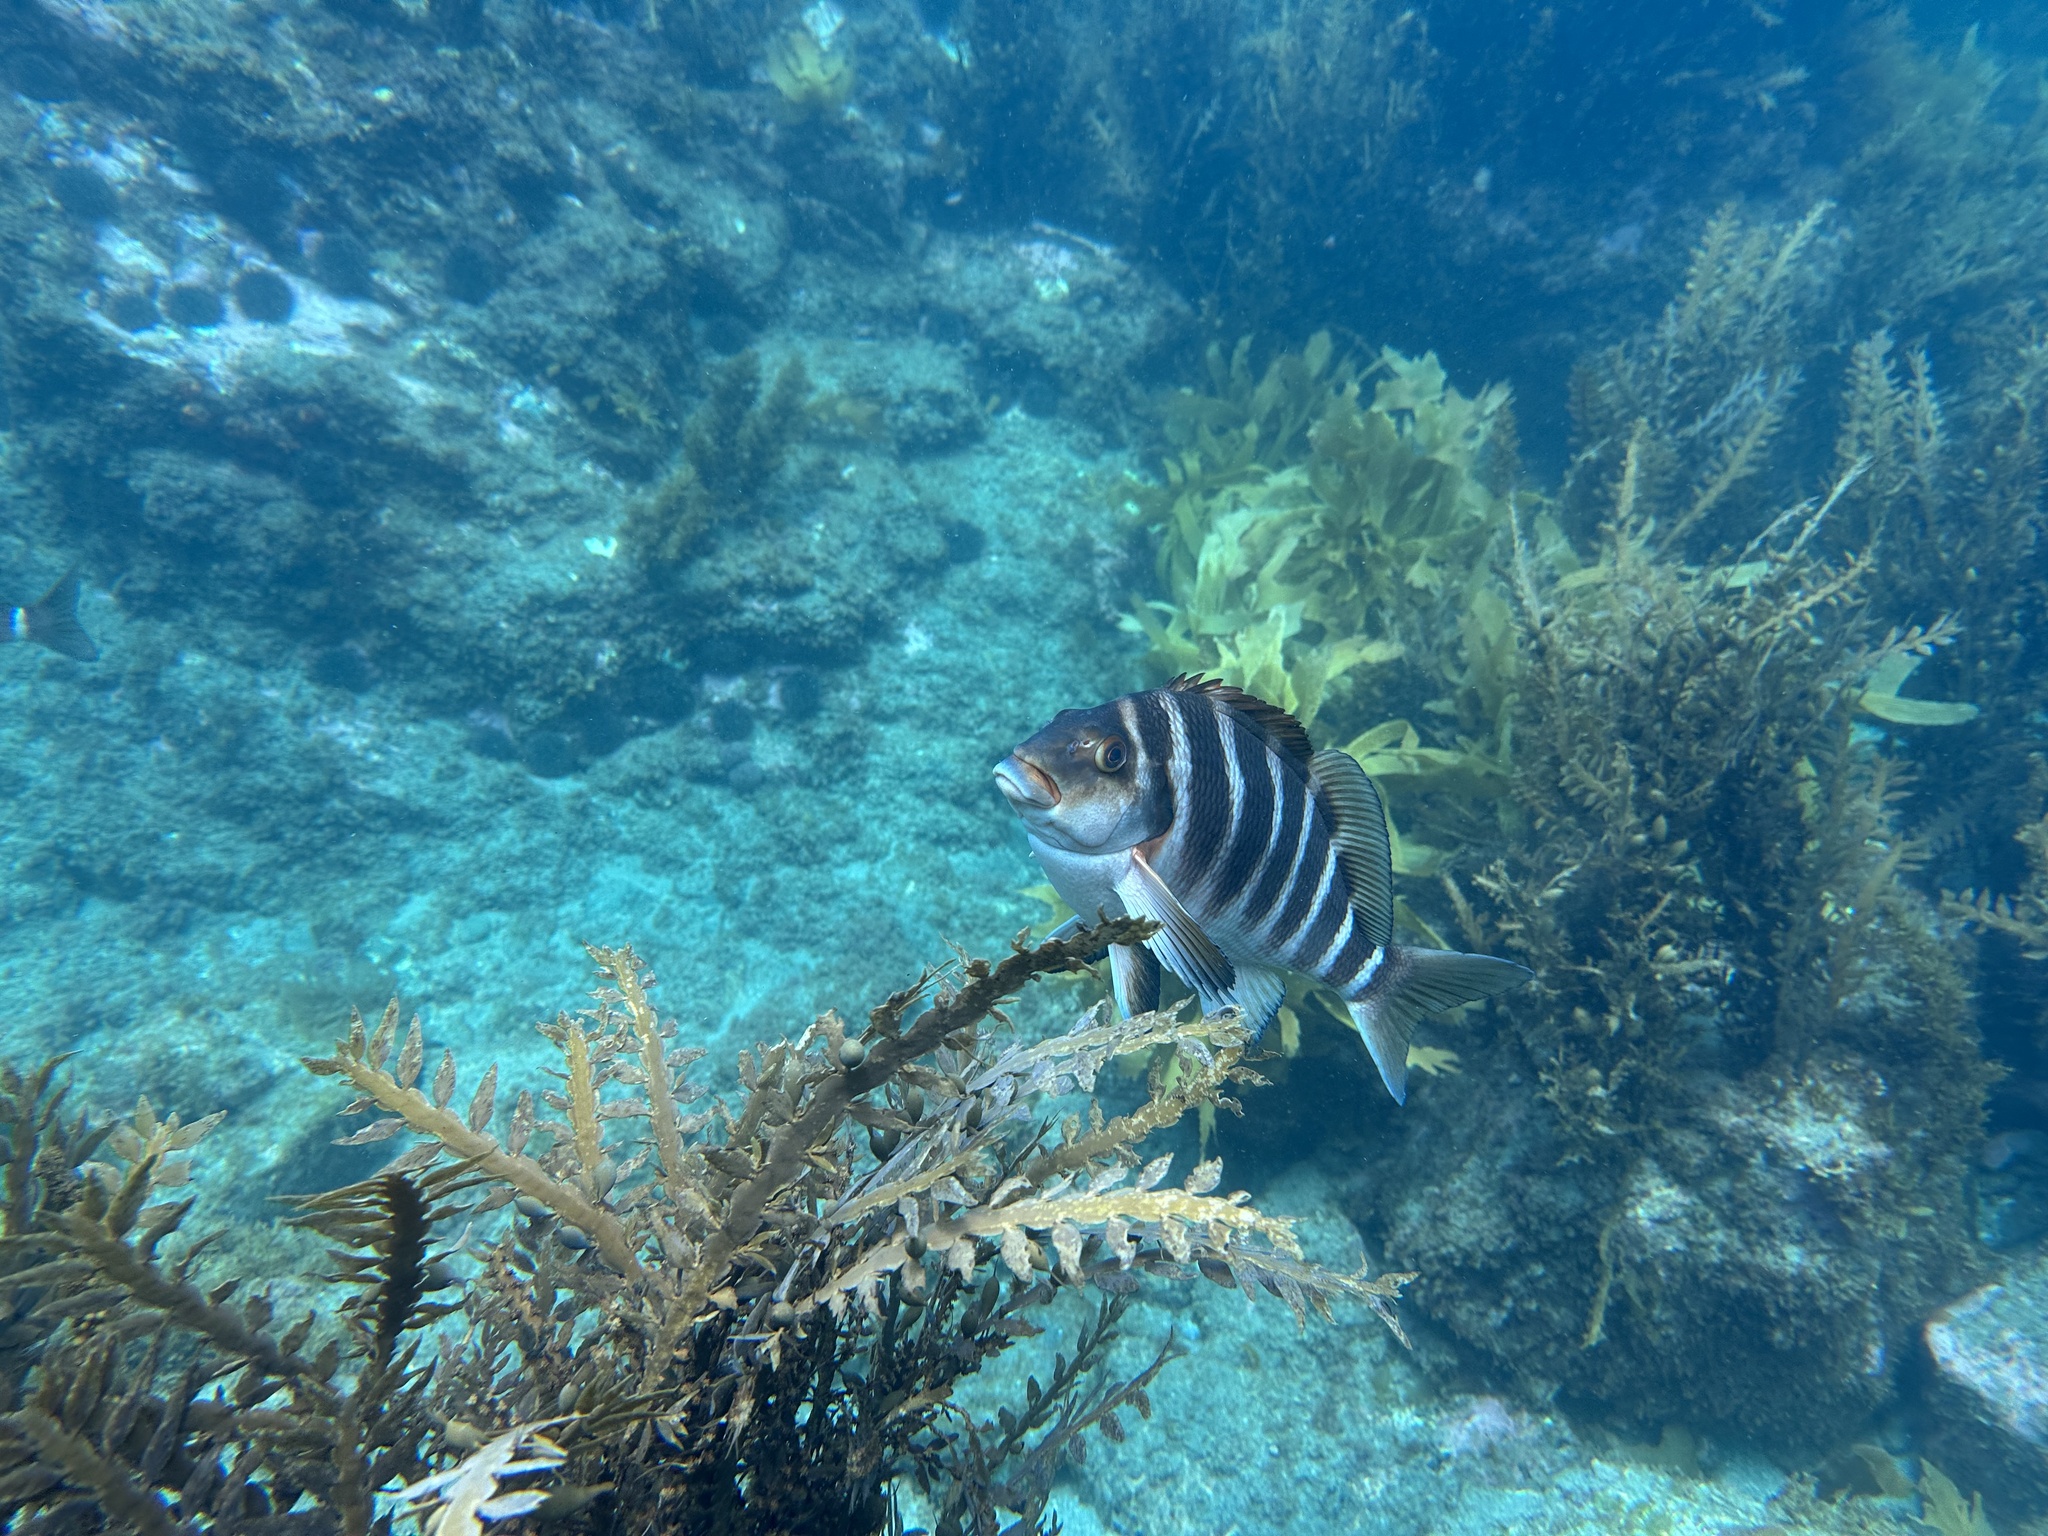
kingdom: Animalia
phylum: Chordata
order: Perciformes
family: Cheilodactylidae
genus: Cheilodactylus
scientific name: Cheilodactylus spectabilis
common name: Red moki
